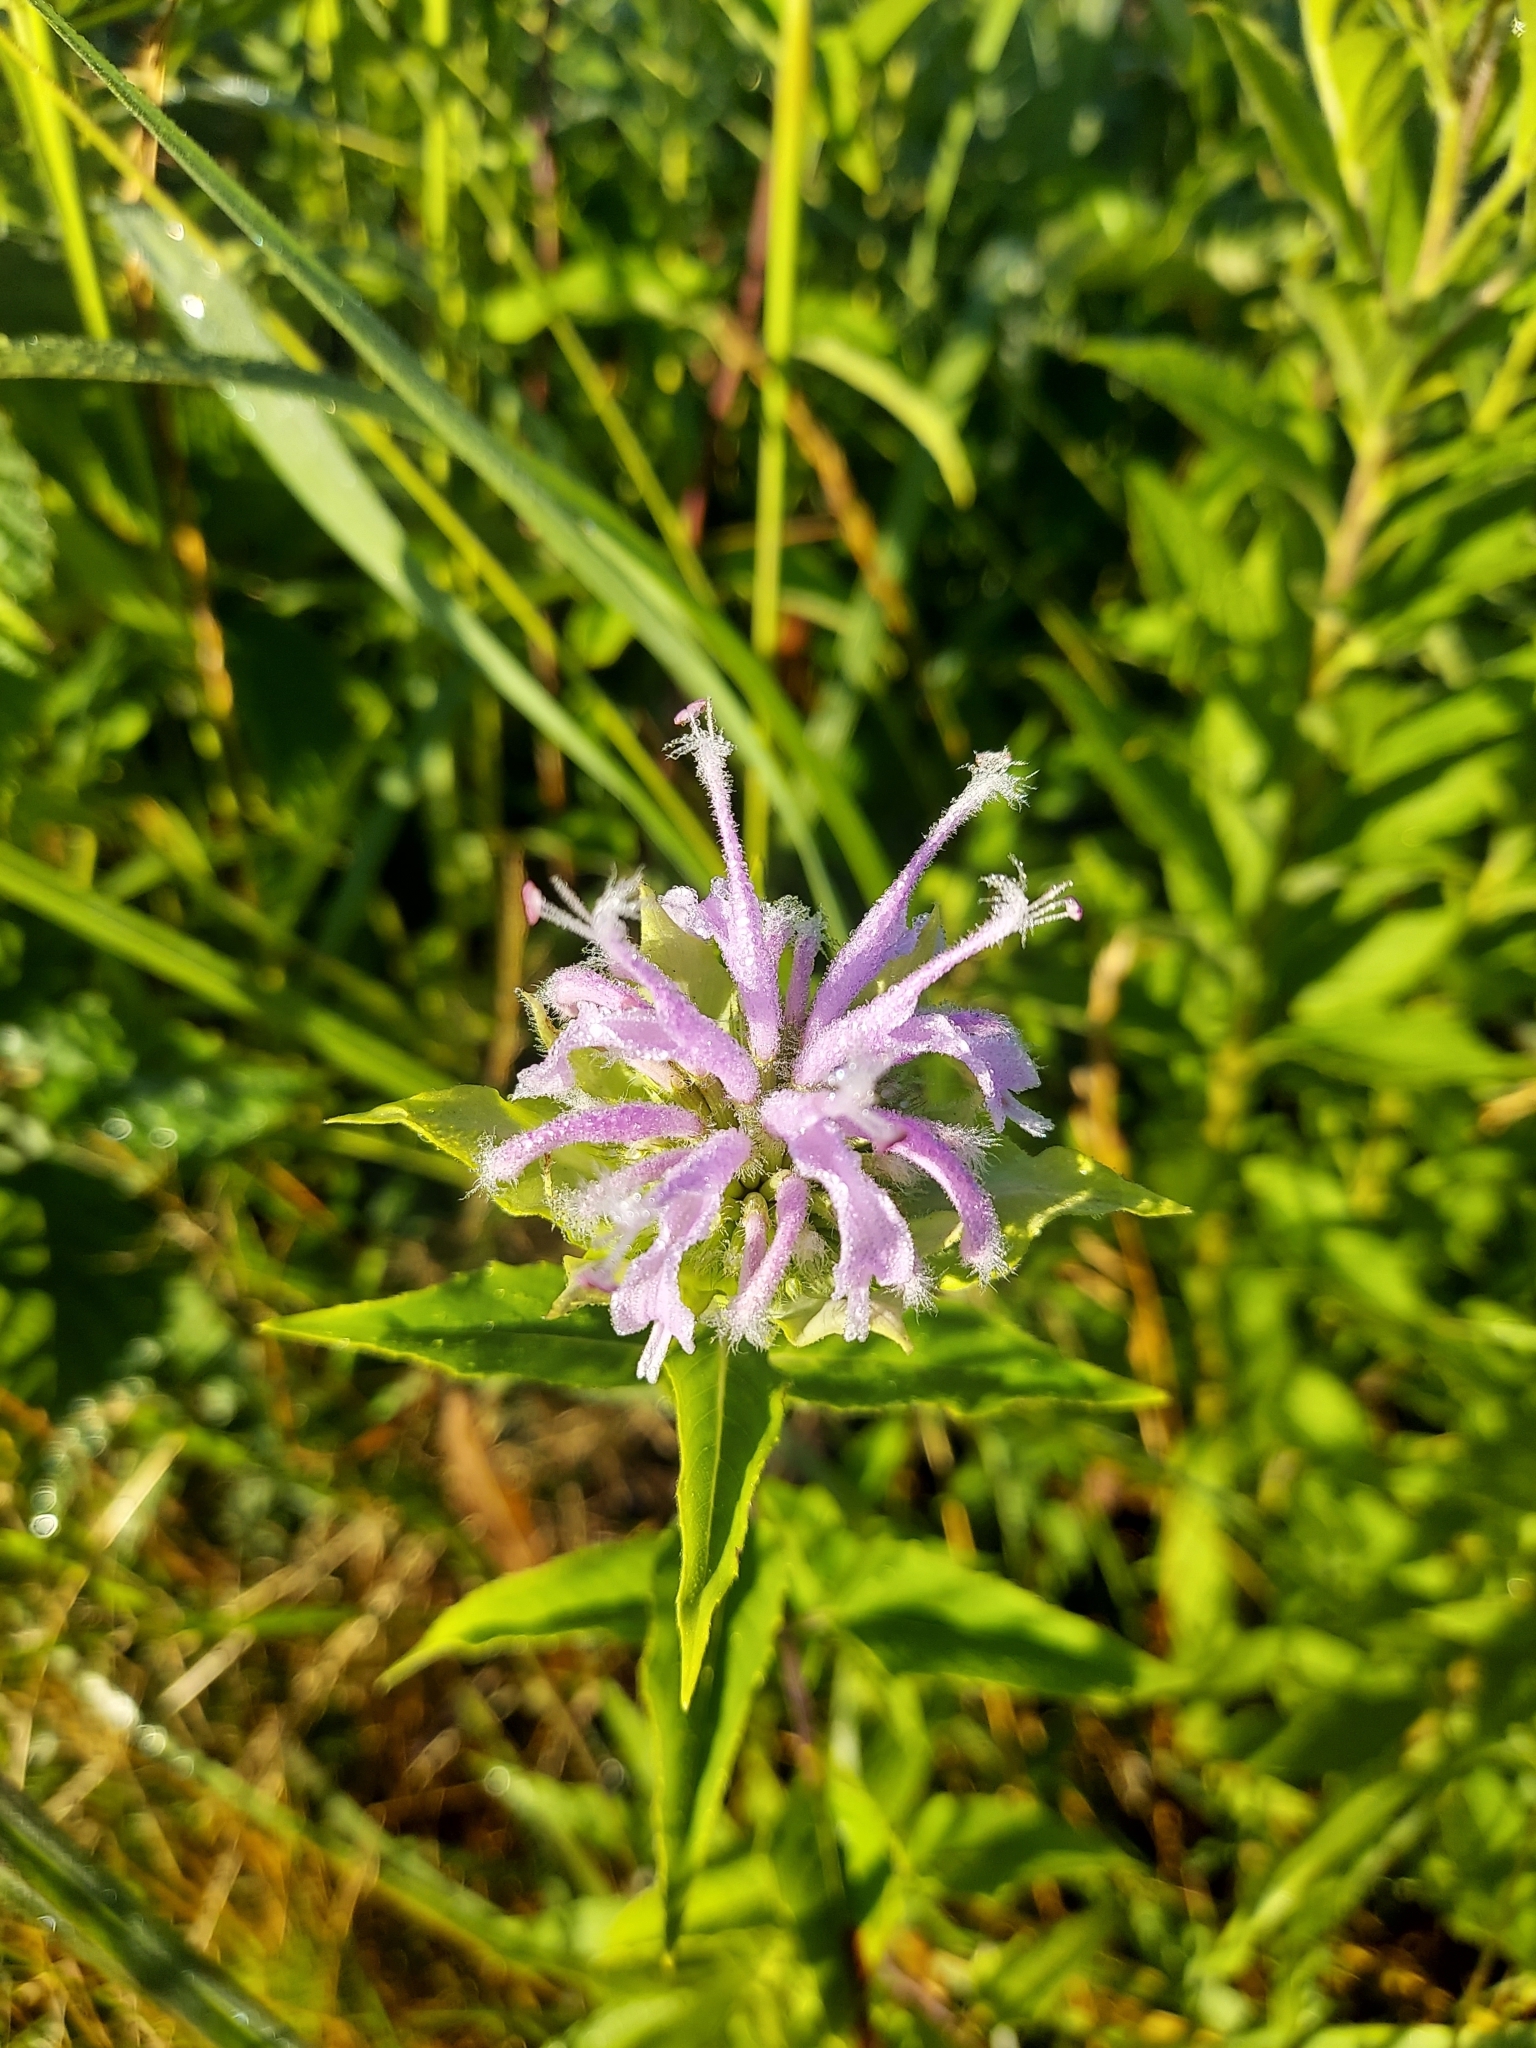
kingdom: Plantae
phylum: Tracheophyta
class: Magnoliopsida
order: Lamiales
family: Lamiaceae
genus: Monarda
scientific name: Monarda fistulosa
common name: Purple beebalm
